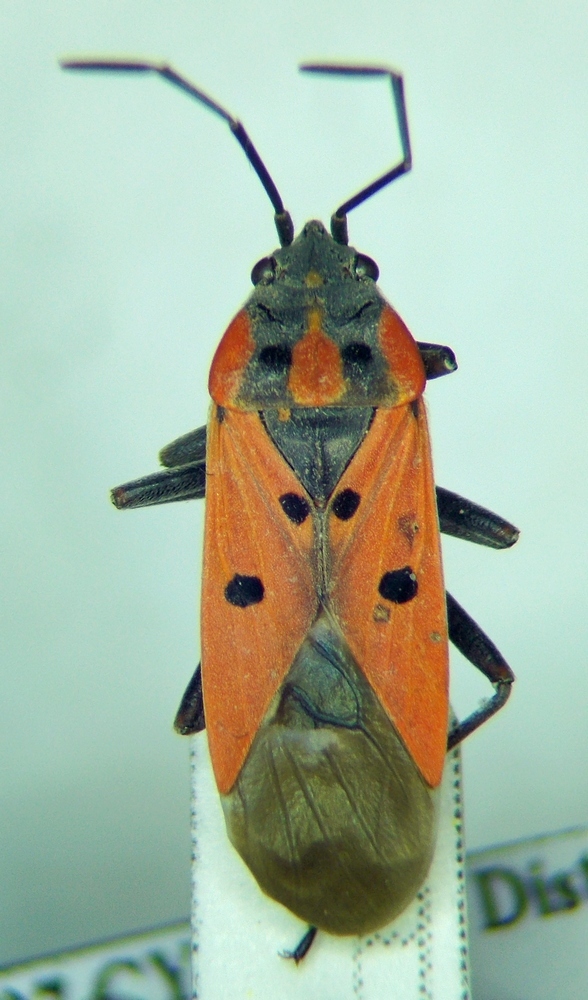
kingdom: Animalia
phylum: Arthropoda
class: Insecta
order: Hemiptera
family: Lygaeidae
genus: Lygaeus
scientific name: Lygaeus creticus
